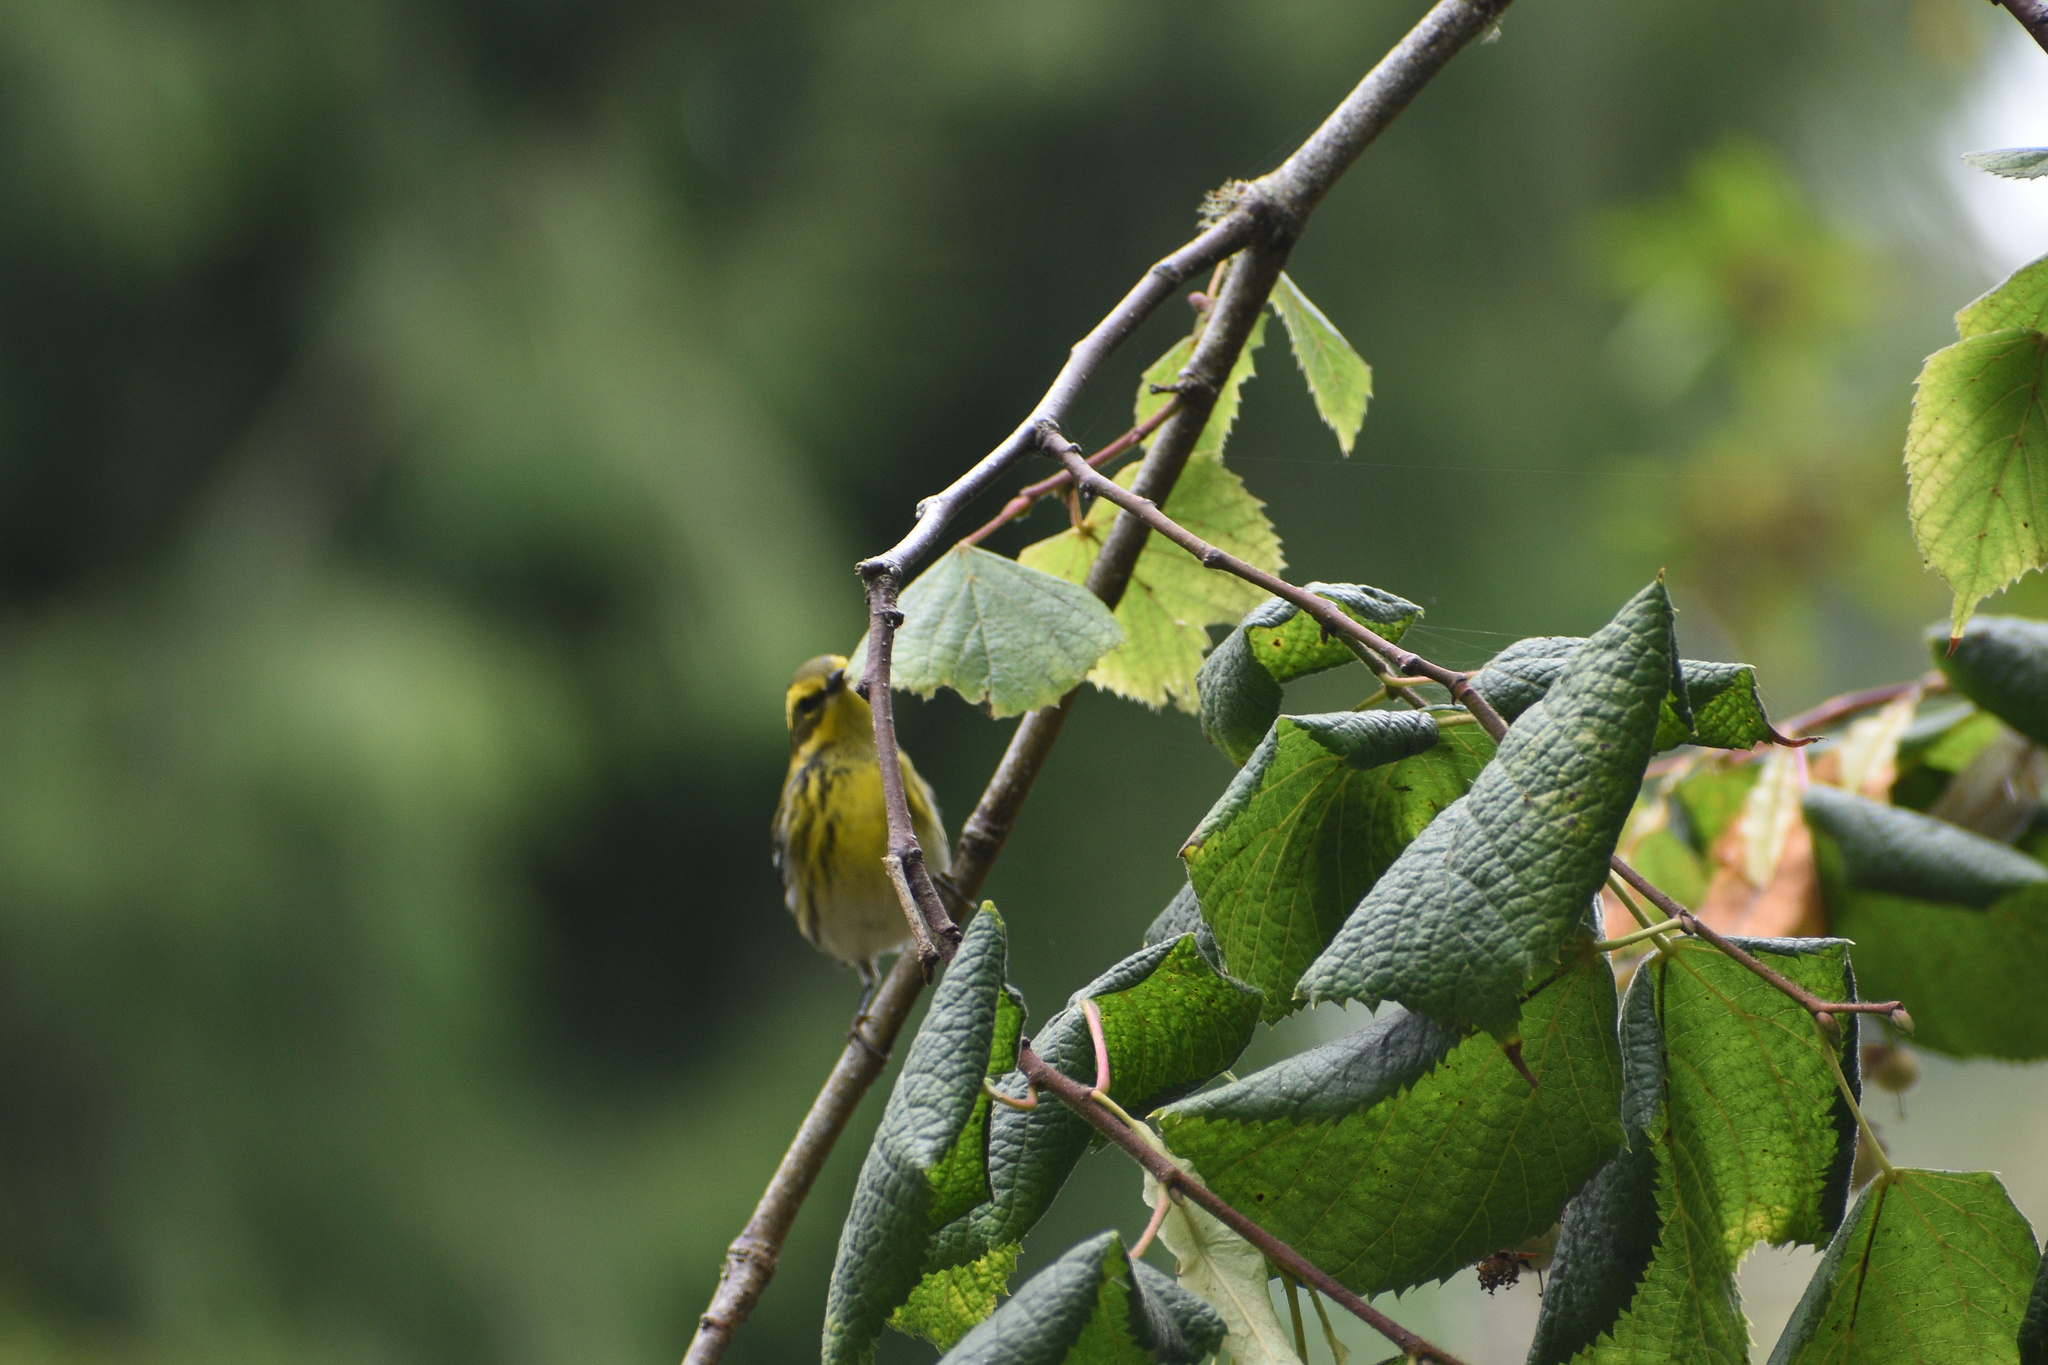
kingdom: Animalia
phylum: Chordata
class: Aves
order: Passeriformes
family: Parulidae
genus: Setophaga
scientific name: Setophaga townsendi
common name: Townsend's warbler
